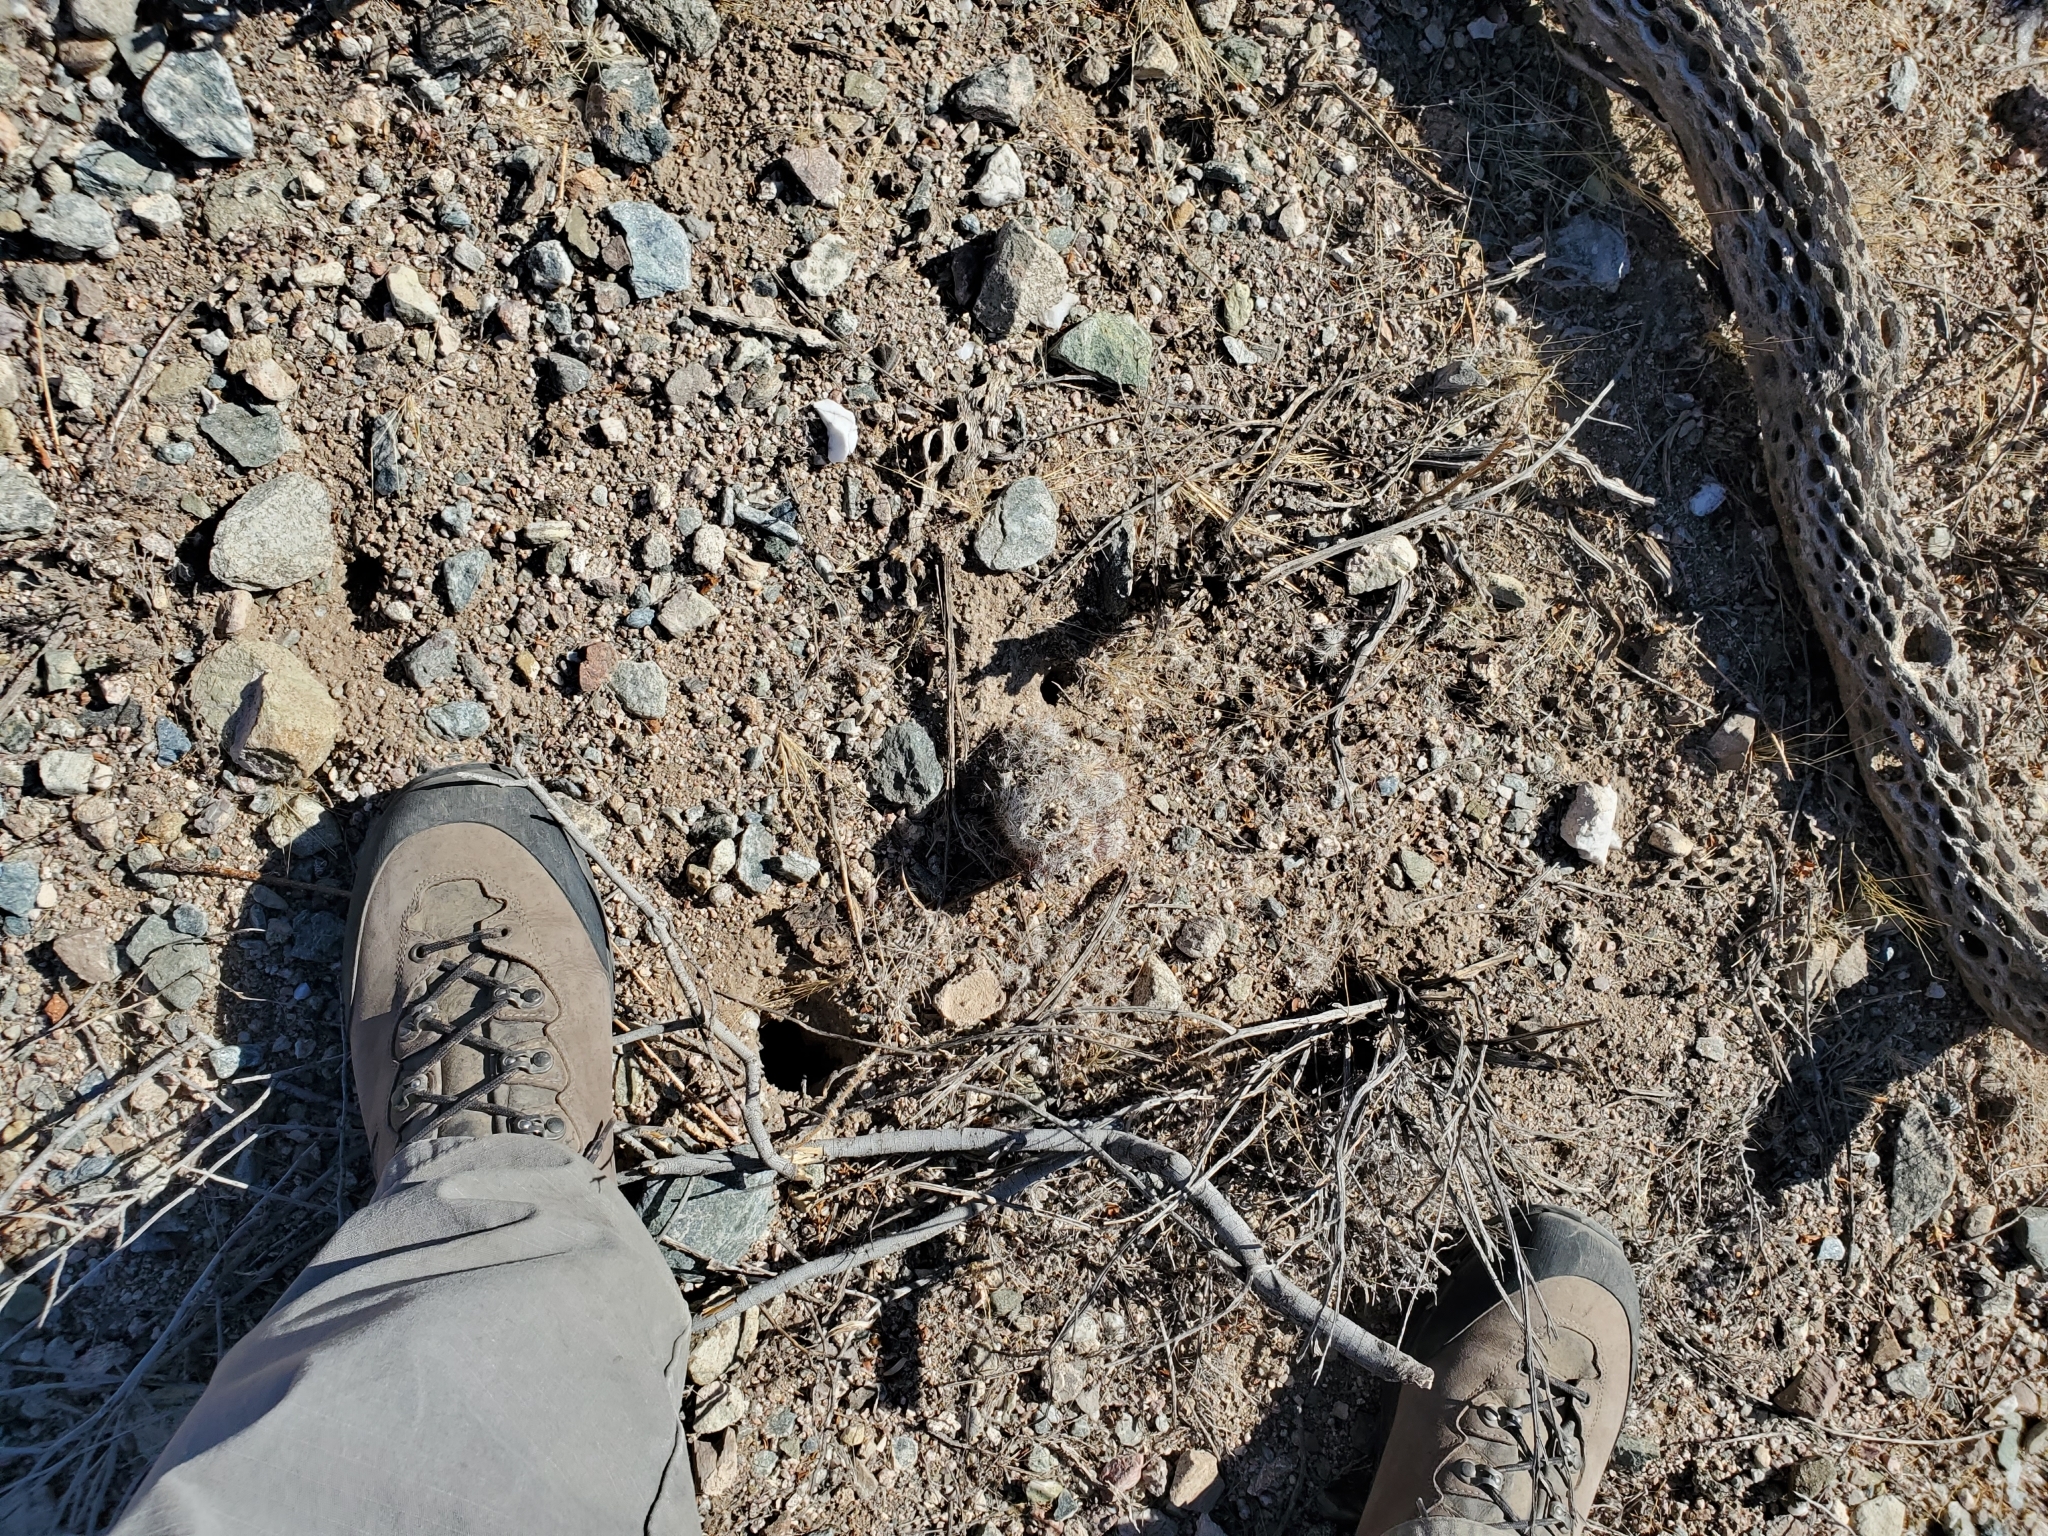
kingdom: Plantae
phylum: Tracheophyta
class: Magnoliopsida
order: Caryophyllales
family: Cactaceae
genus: Cochemiea
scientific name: Cochemiea grahamii
